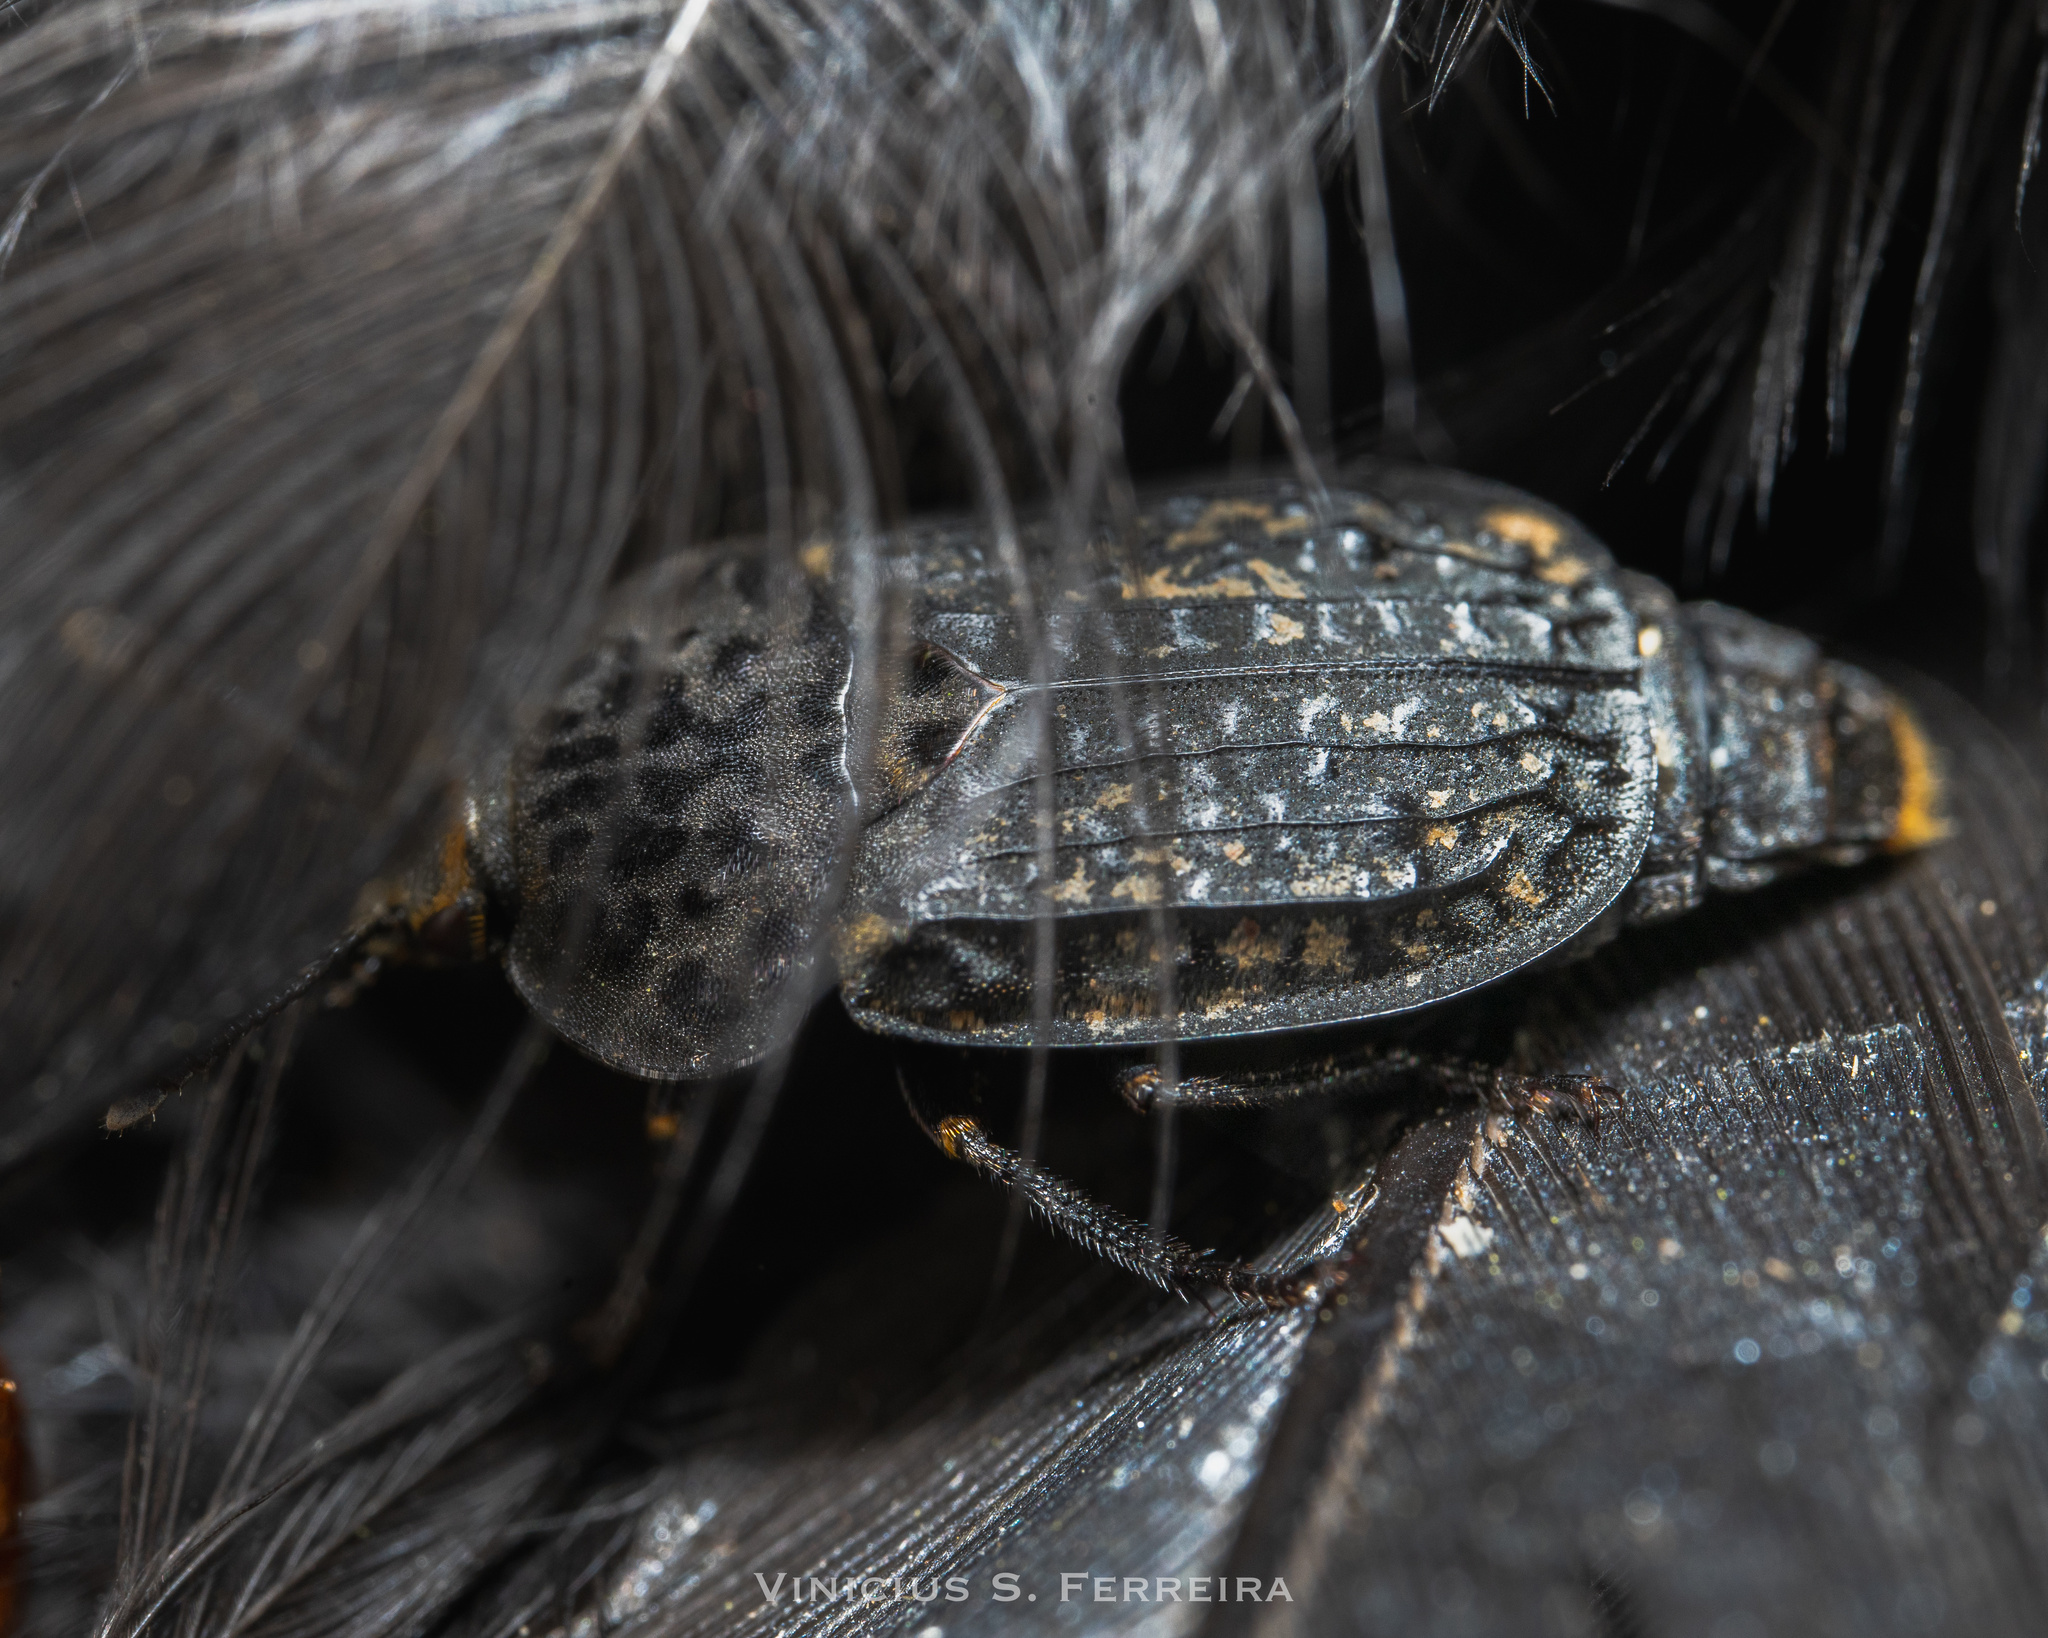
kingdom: Animalia
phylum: Arthropoda
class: Insecta
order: Coleoptera
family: Staphylinidae
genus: Thanatophilus
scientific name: Thanatophilus rugosus
